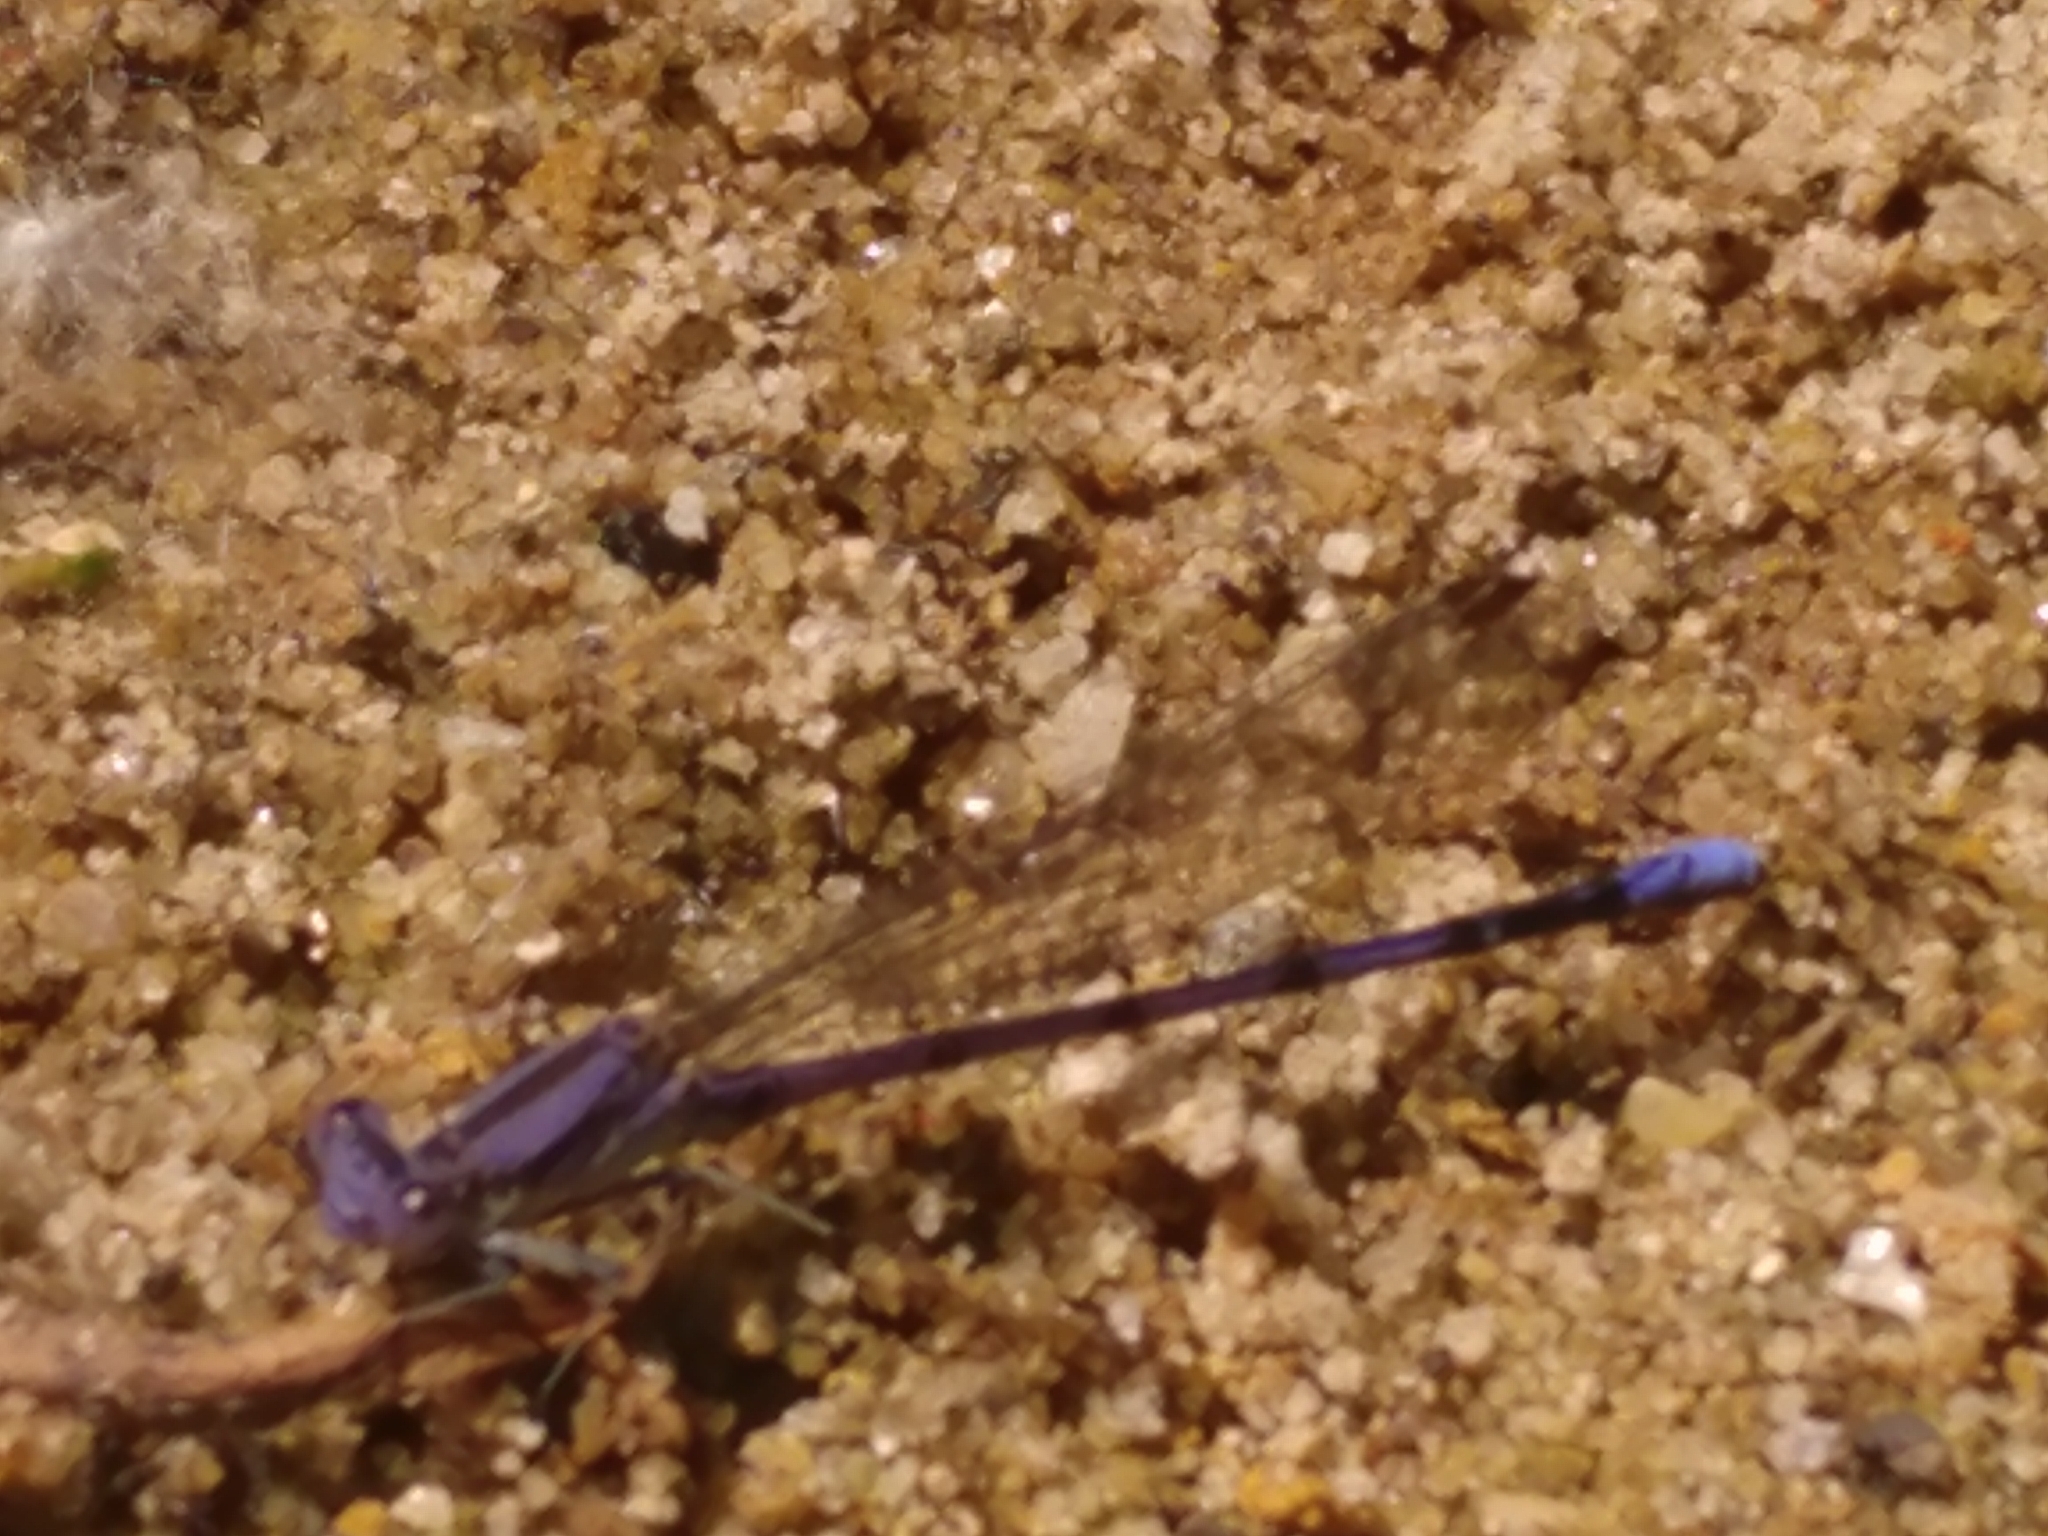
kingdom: Animalia
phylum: Arthropoda
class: Insecta
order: Odonata
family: Coenagrionidae
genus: Argia
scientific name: Argia fumipennis
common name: Variable dancer
